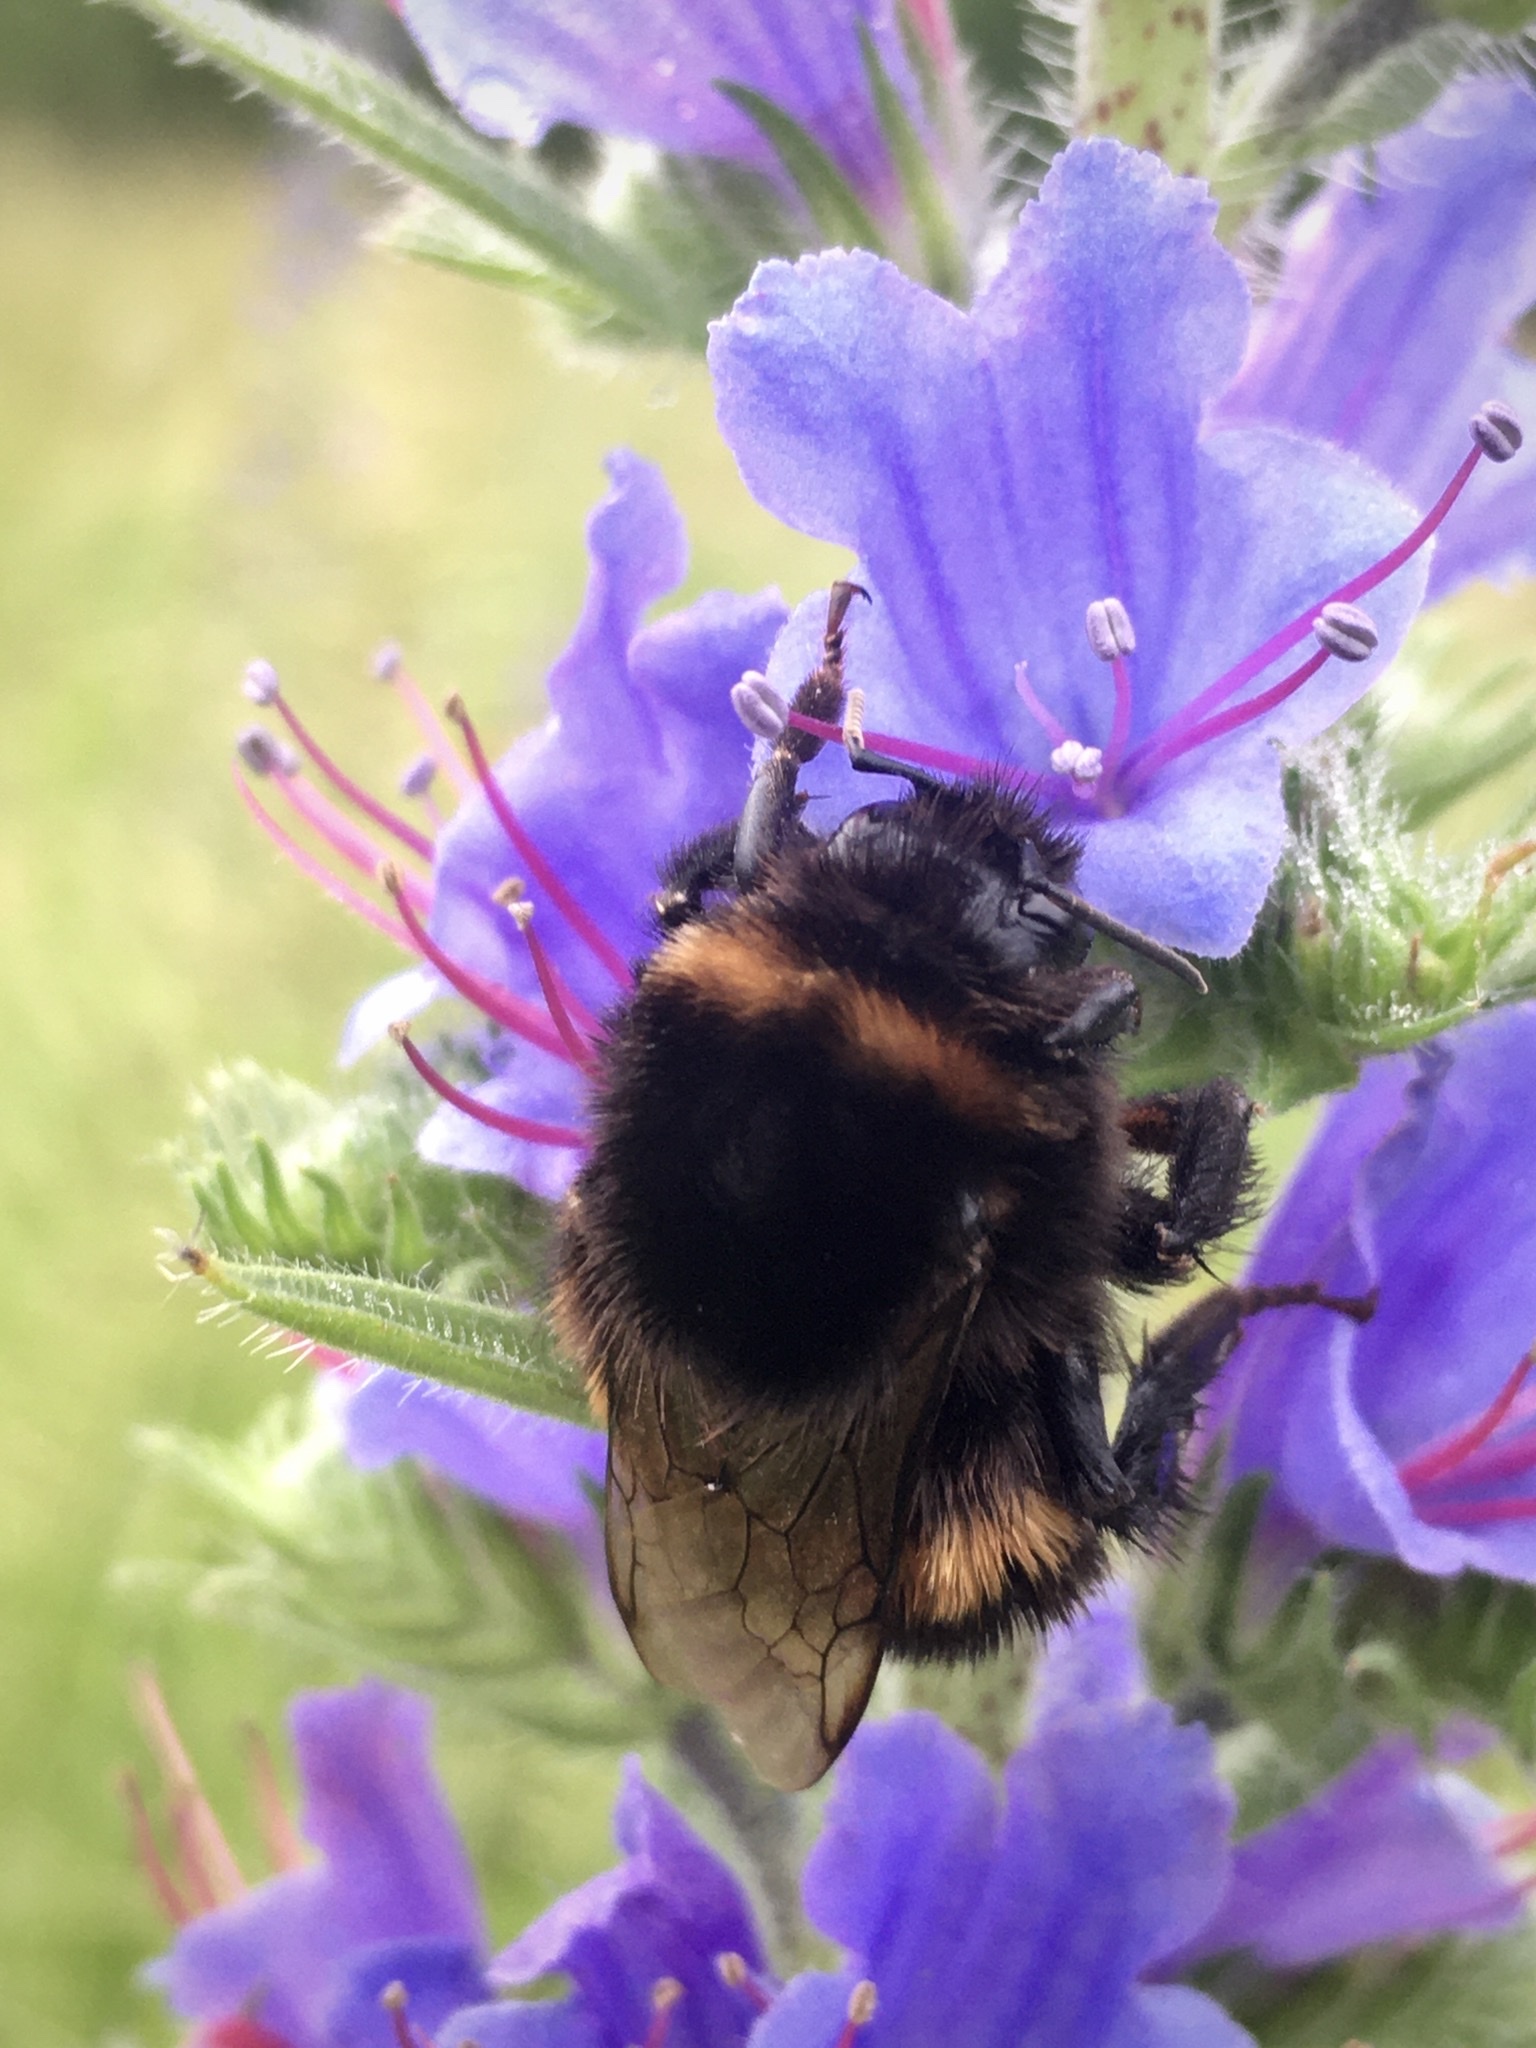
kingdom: Animalia
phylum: Arthropoda
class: Insecta
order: Hymenoptera
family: Apidae
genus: Bombus
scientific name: Bombus
